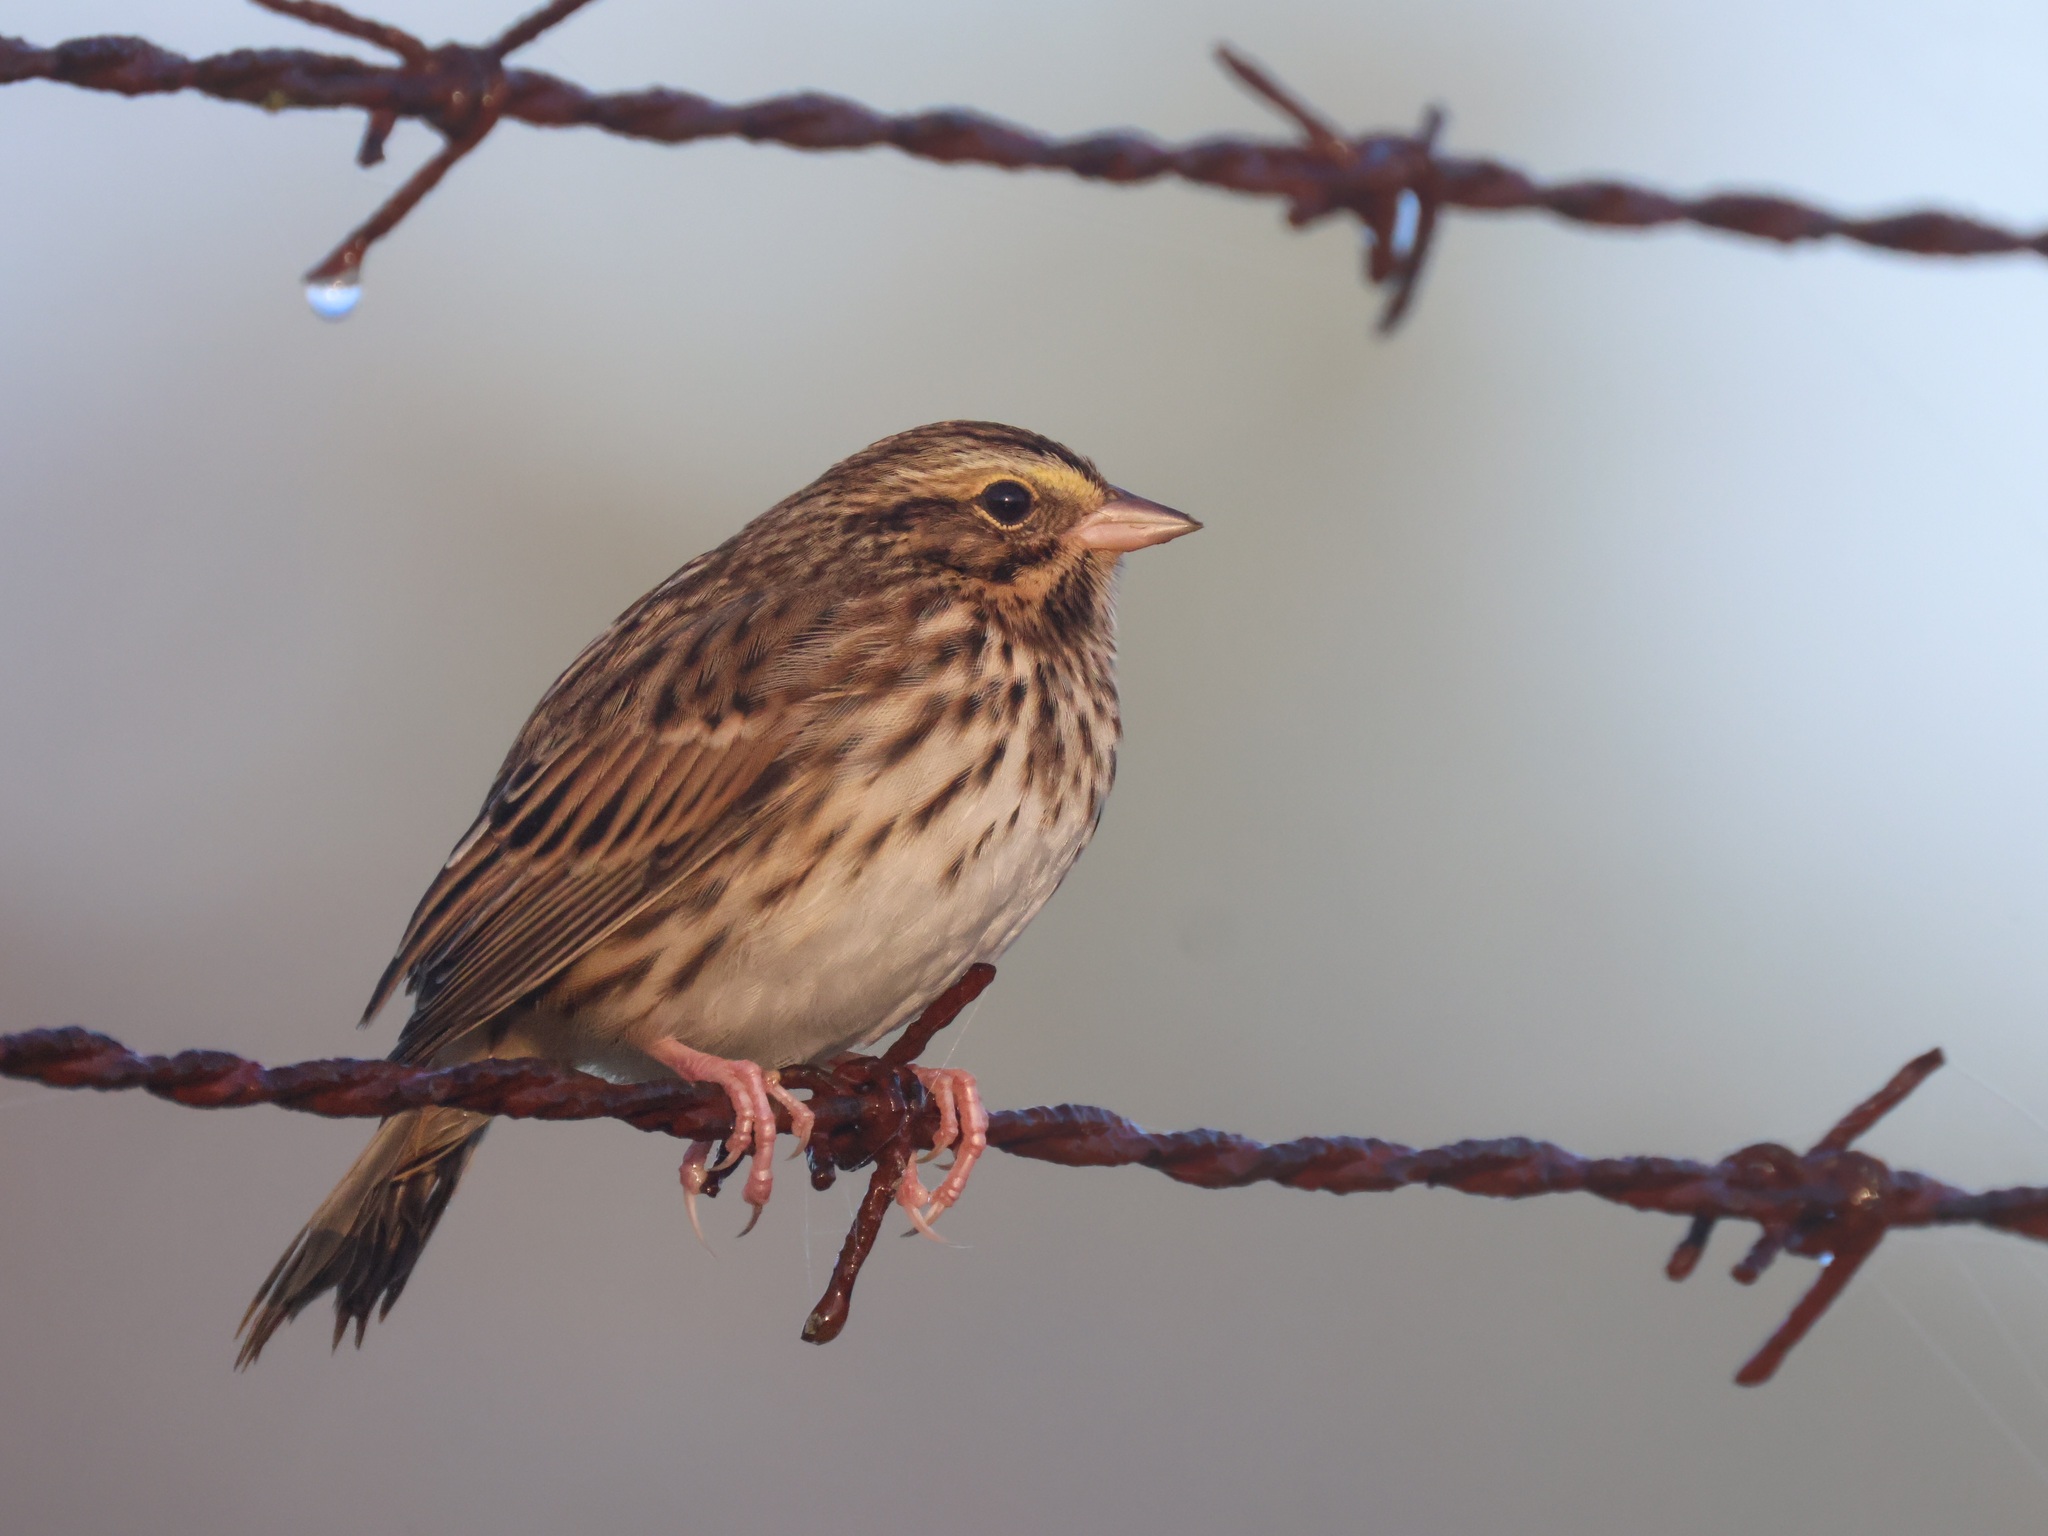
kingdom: Animalia
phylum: Chordata
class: Aves
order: Passeriformes
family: Passerellidae
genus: Passerculus
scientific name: Passerculus sandwichensis
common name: Savannah sparrow
